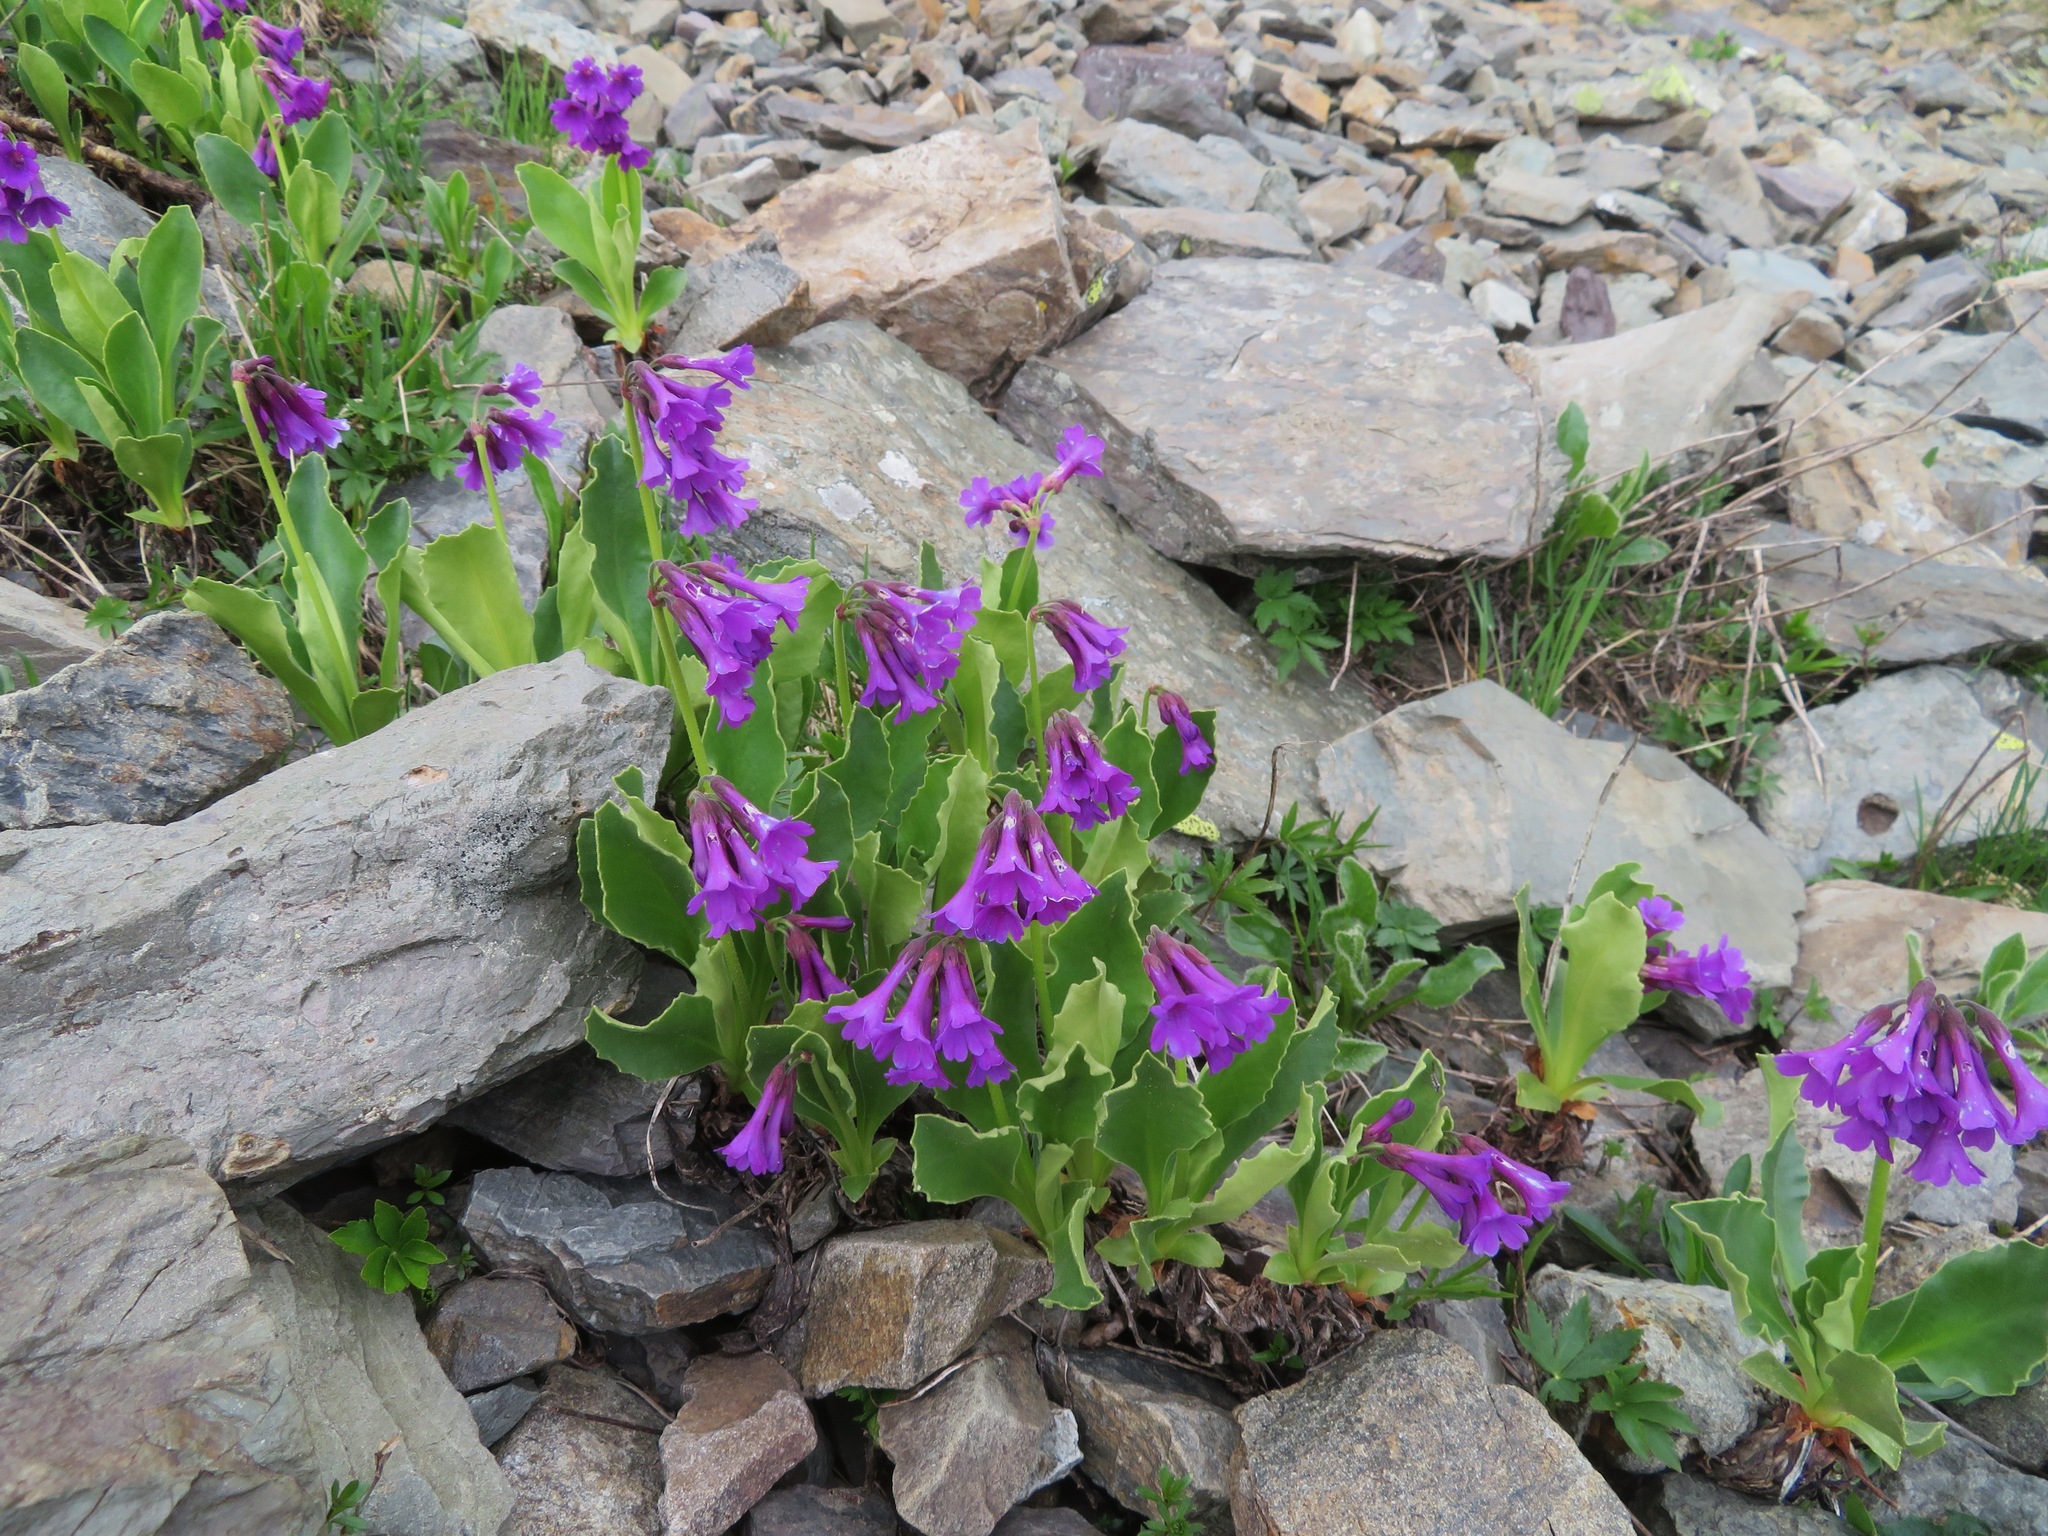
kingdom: Plantae
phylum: Tracheophyta
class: Magnoliopsida
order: Ericales
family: Primulaceae
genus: Primula
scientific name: Primula latifolia
